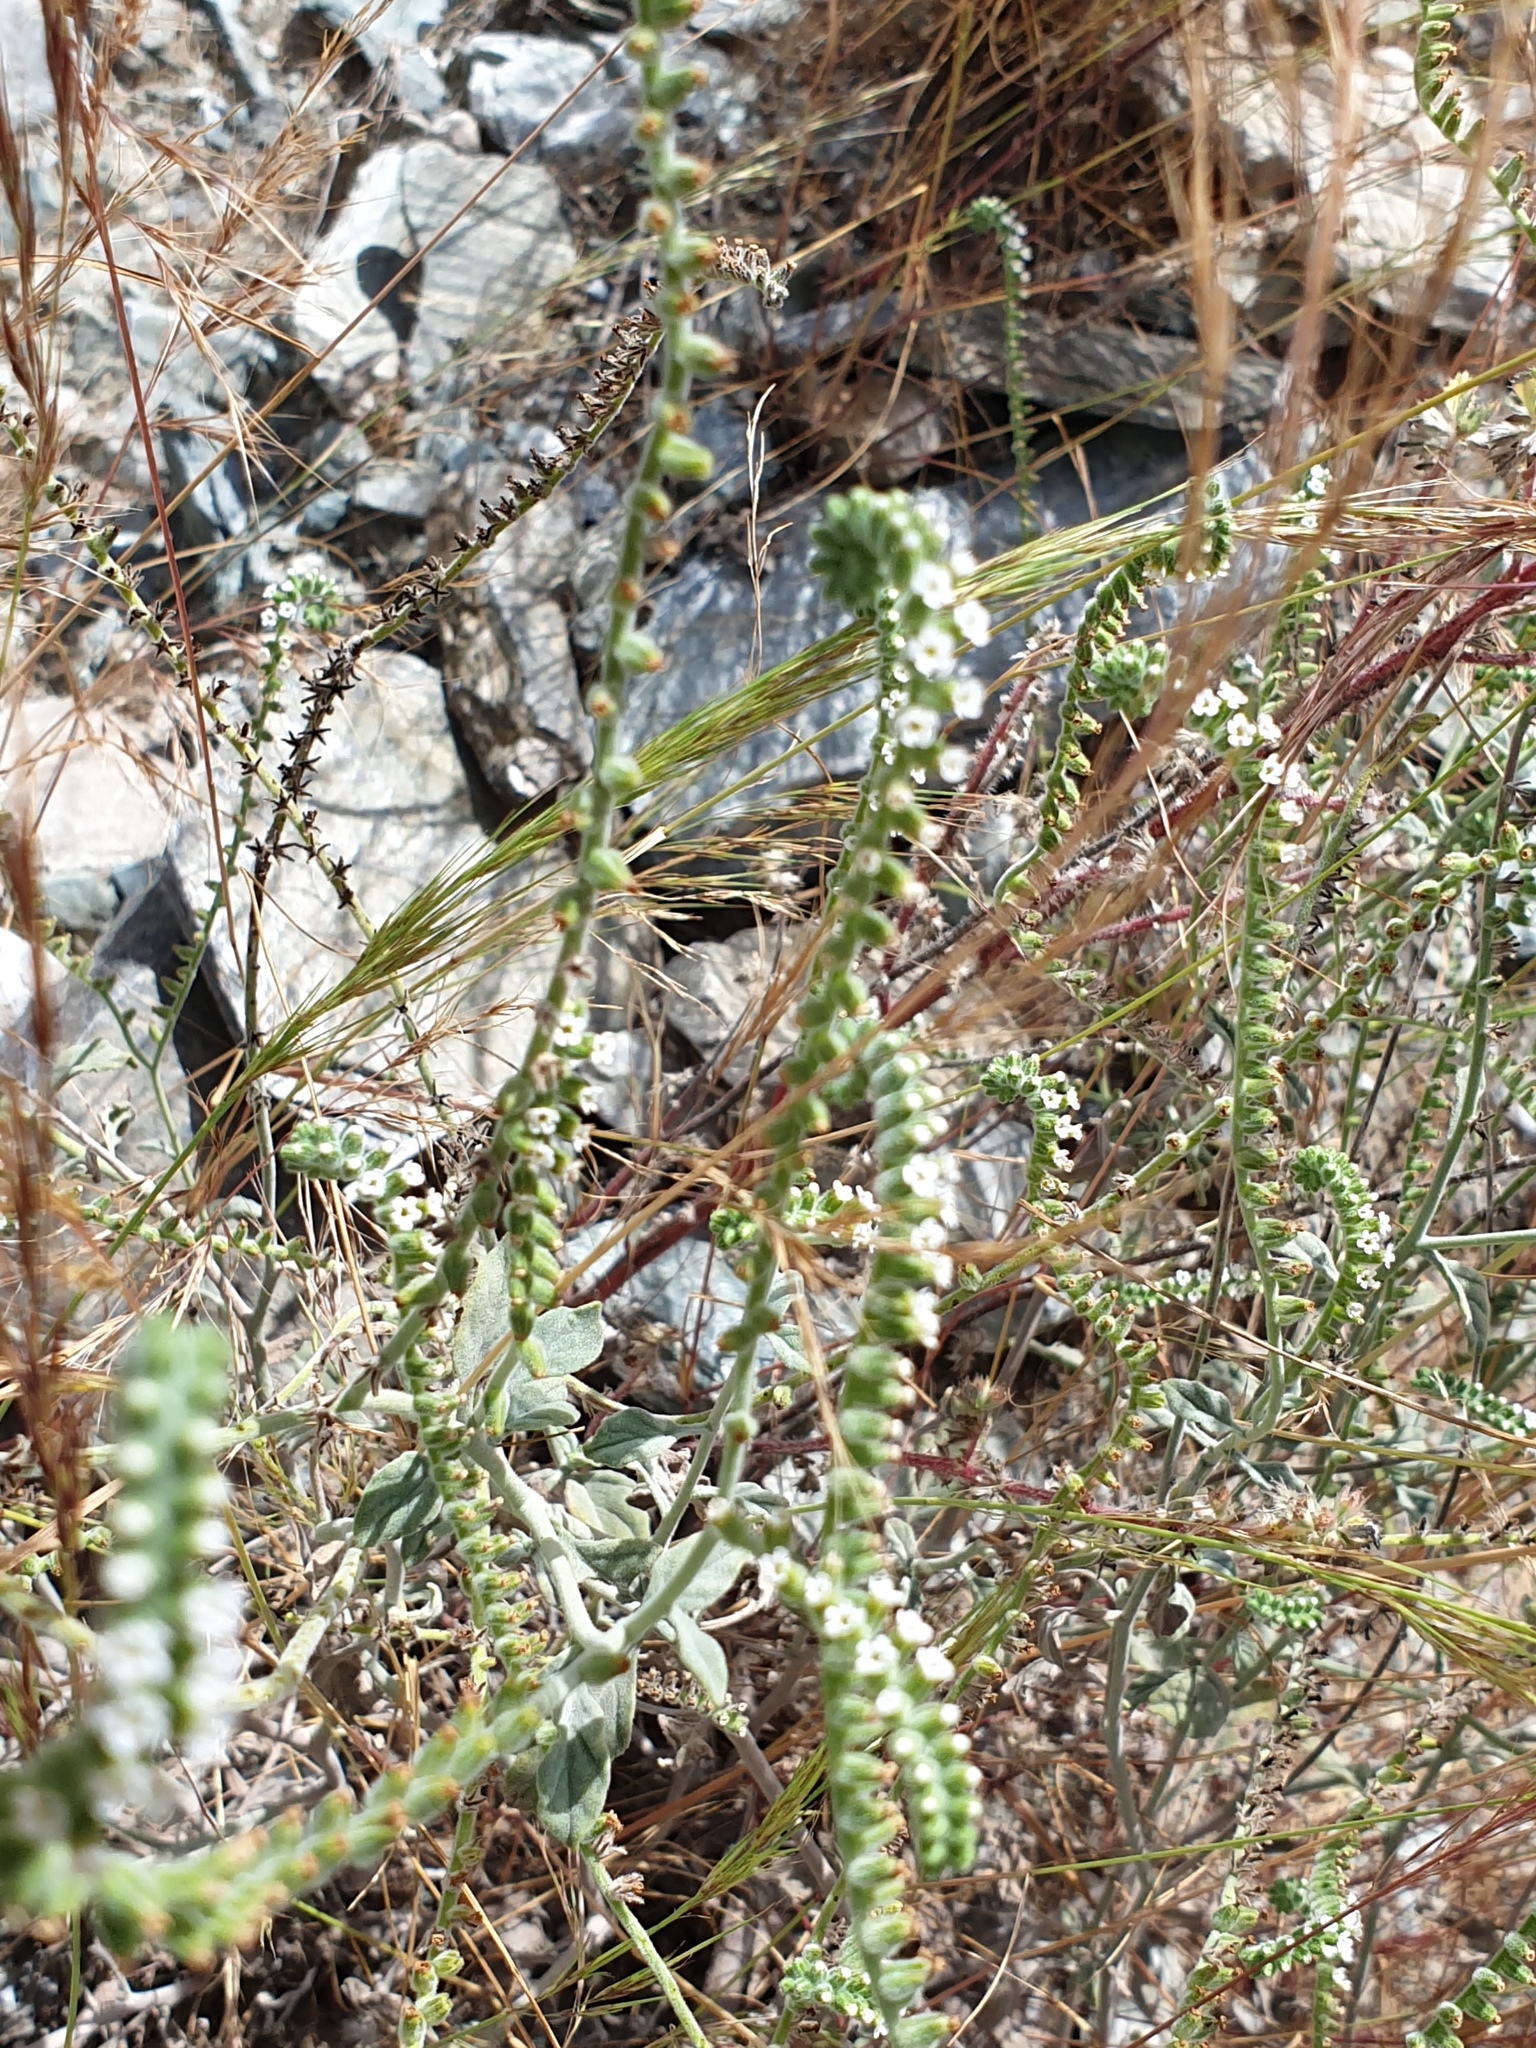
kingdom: Plantae
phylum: Tracheophyta
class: Magnoliopsida
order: Boraginales
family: Boraginaceae
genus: Echiochilon
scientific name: Echiochilon persicum
